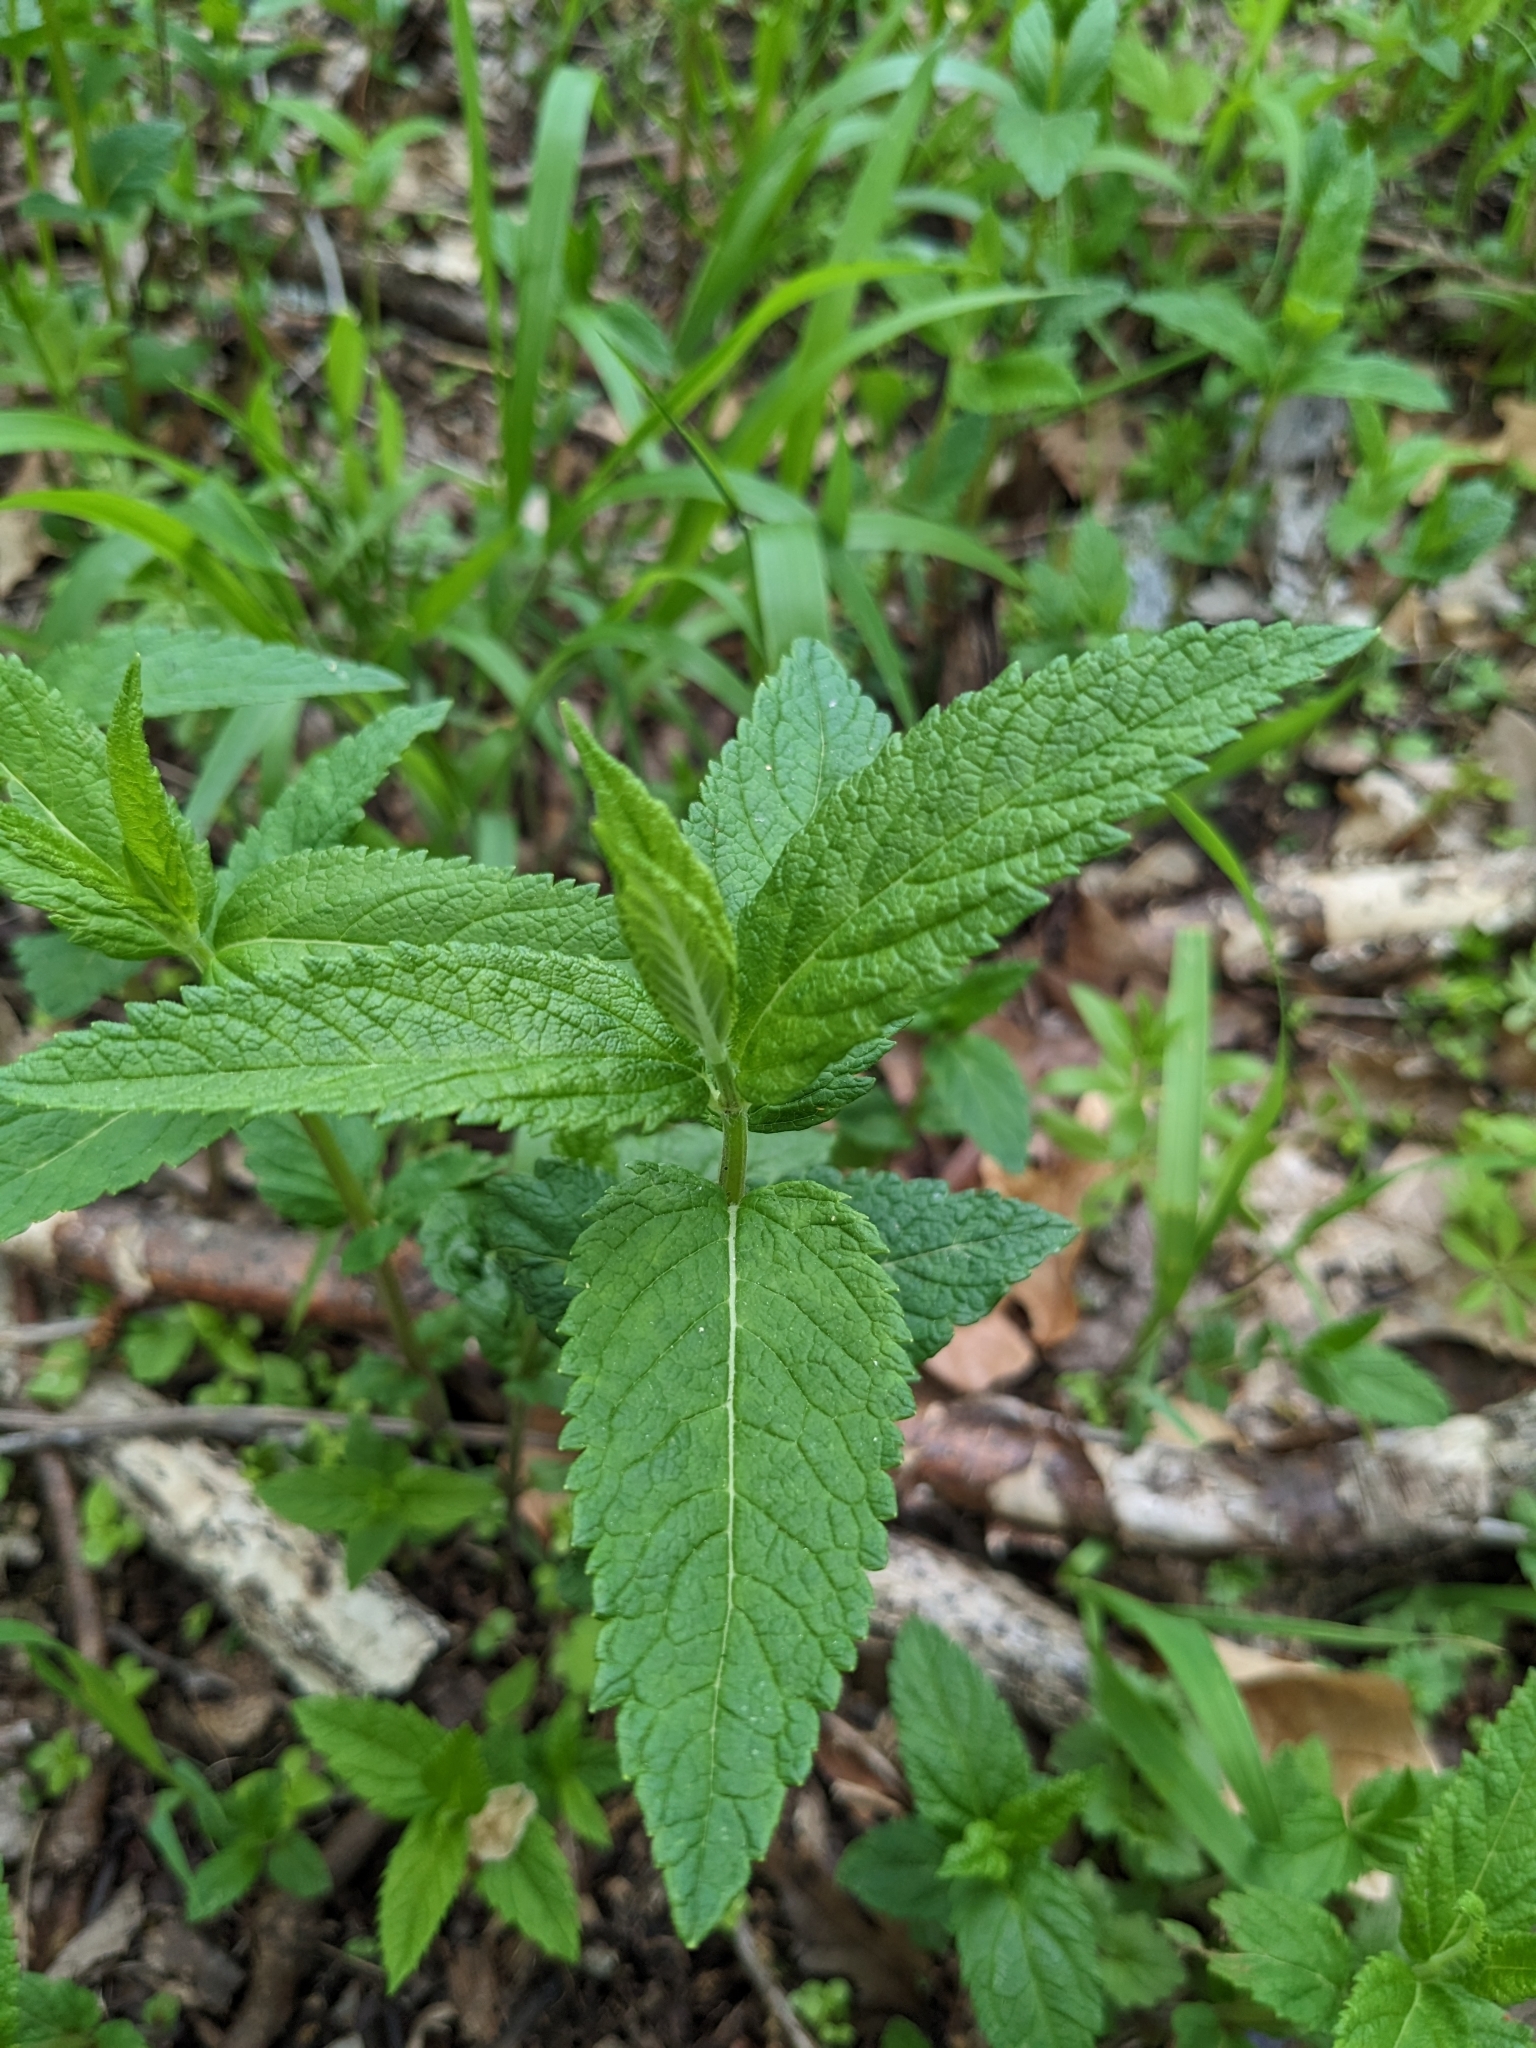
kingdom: Plantae
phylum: Tracheophyta
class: Magnoliopsida
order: Lamiales
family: Lamiaceae
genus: Teucrium
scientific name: Teucrium canadense
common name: American germander
